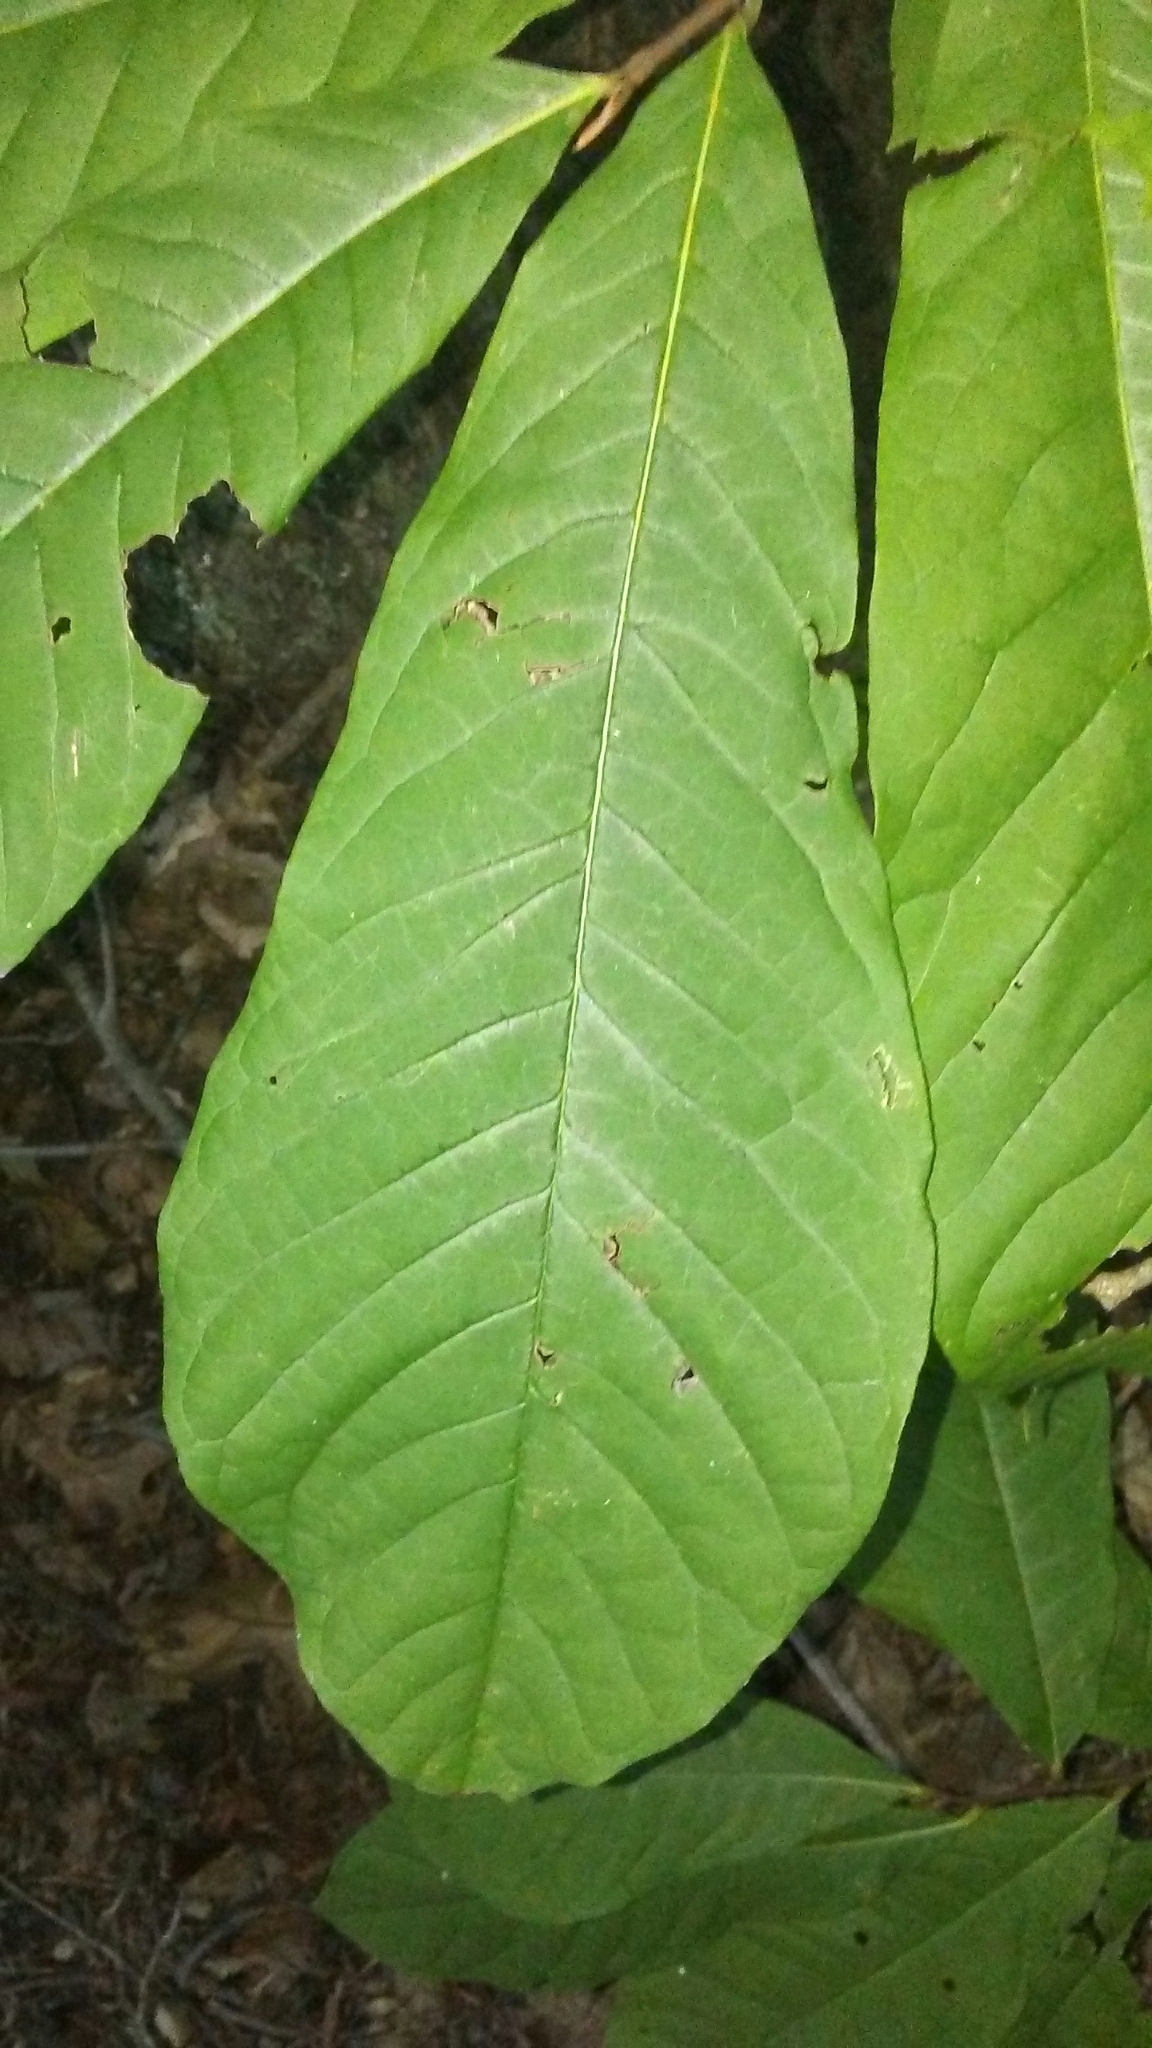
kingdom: Plantae
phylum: Tracheophyta
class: Magnoliopsida
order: Magnoliales
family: Annonaceae
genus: Asimina
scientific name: Asimina triloba
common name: Dog-banana
